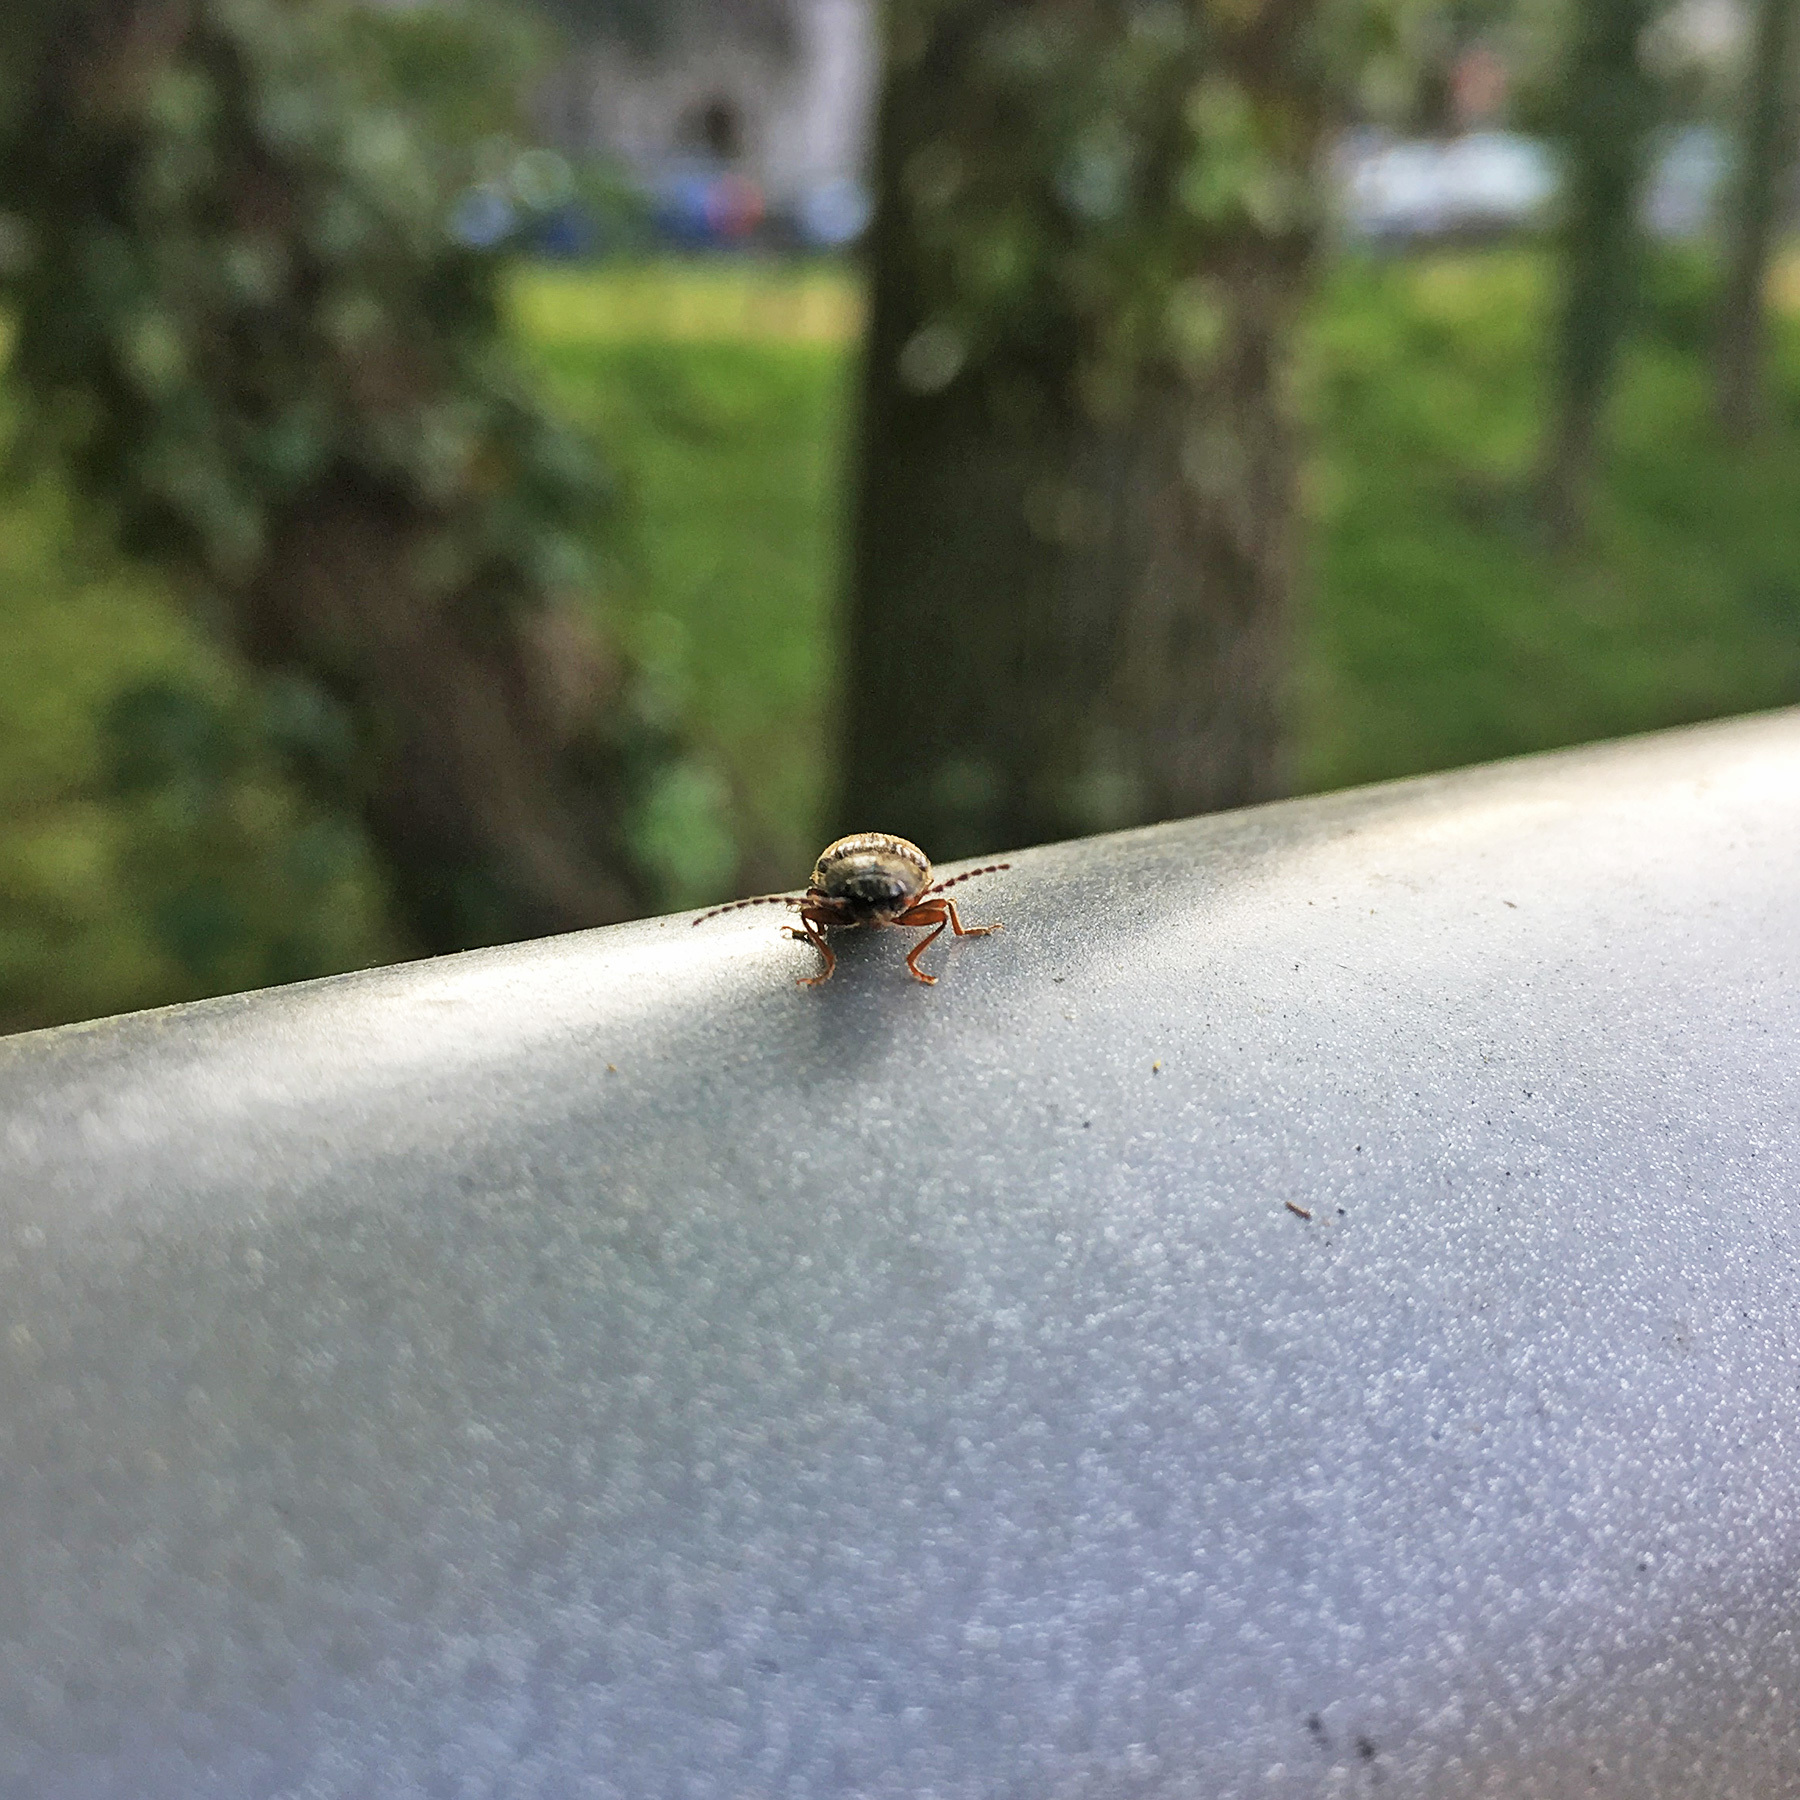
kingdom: Animalia
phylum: Arthropoda
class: Insecta
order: Coleoptera
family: Elateridae
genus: Athous
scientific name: Athous haemorrhoidalis
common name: Red-brown click beetle
